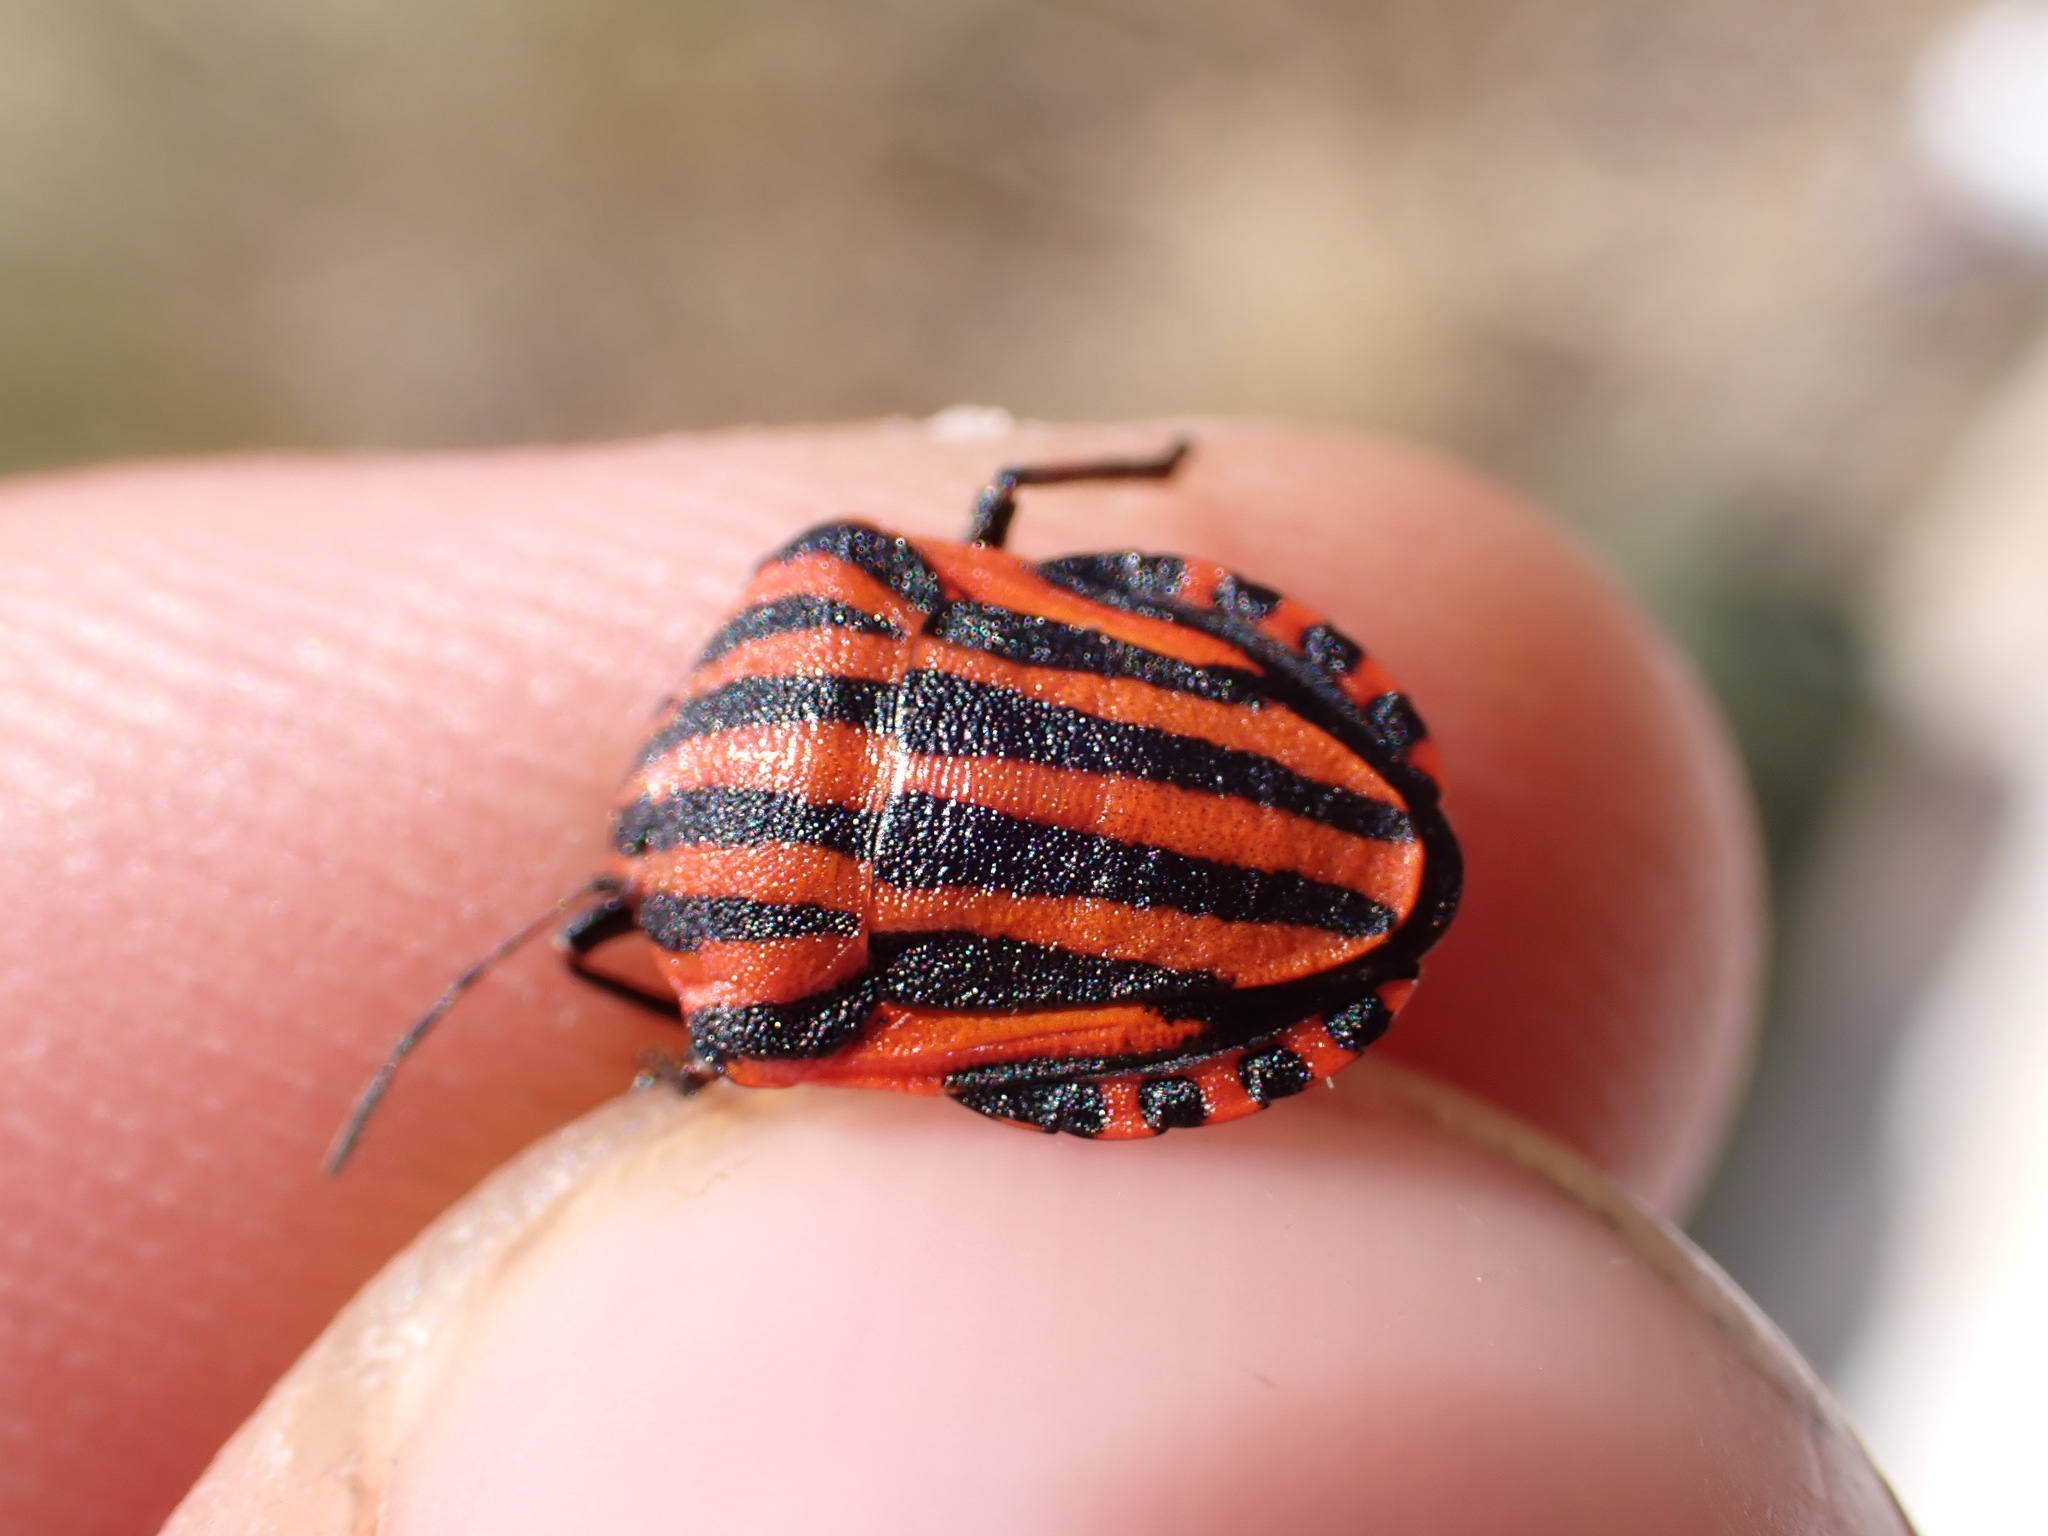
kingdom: Animalia
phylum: Arthropoda
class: Insecta
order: Hemiptera
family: Pentatomidae
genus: Graphosoma
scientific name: Graphosoma italicum
